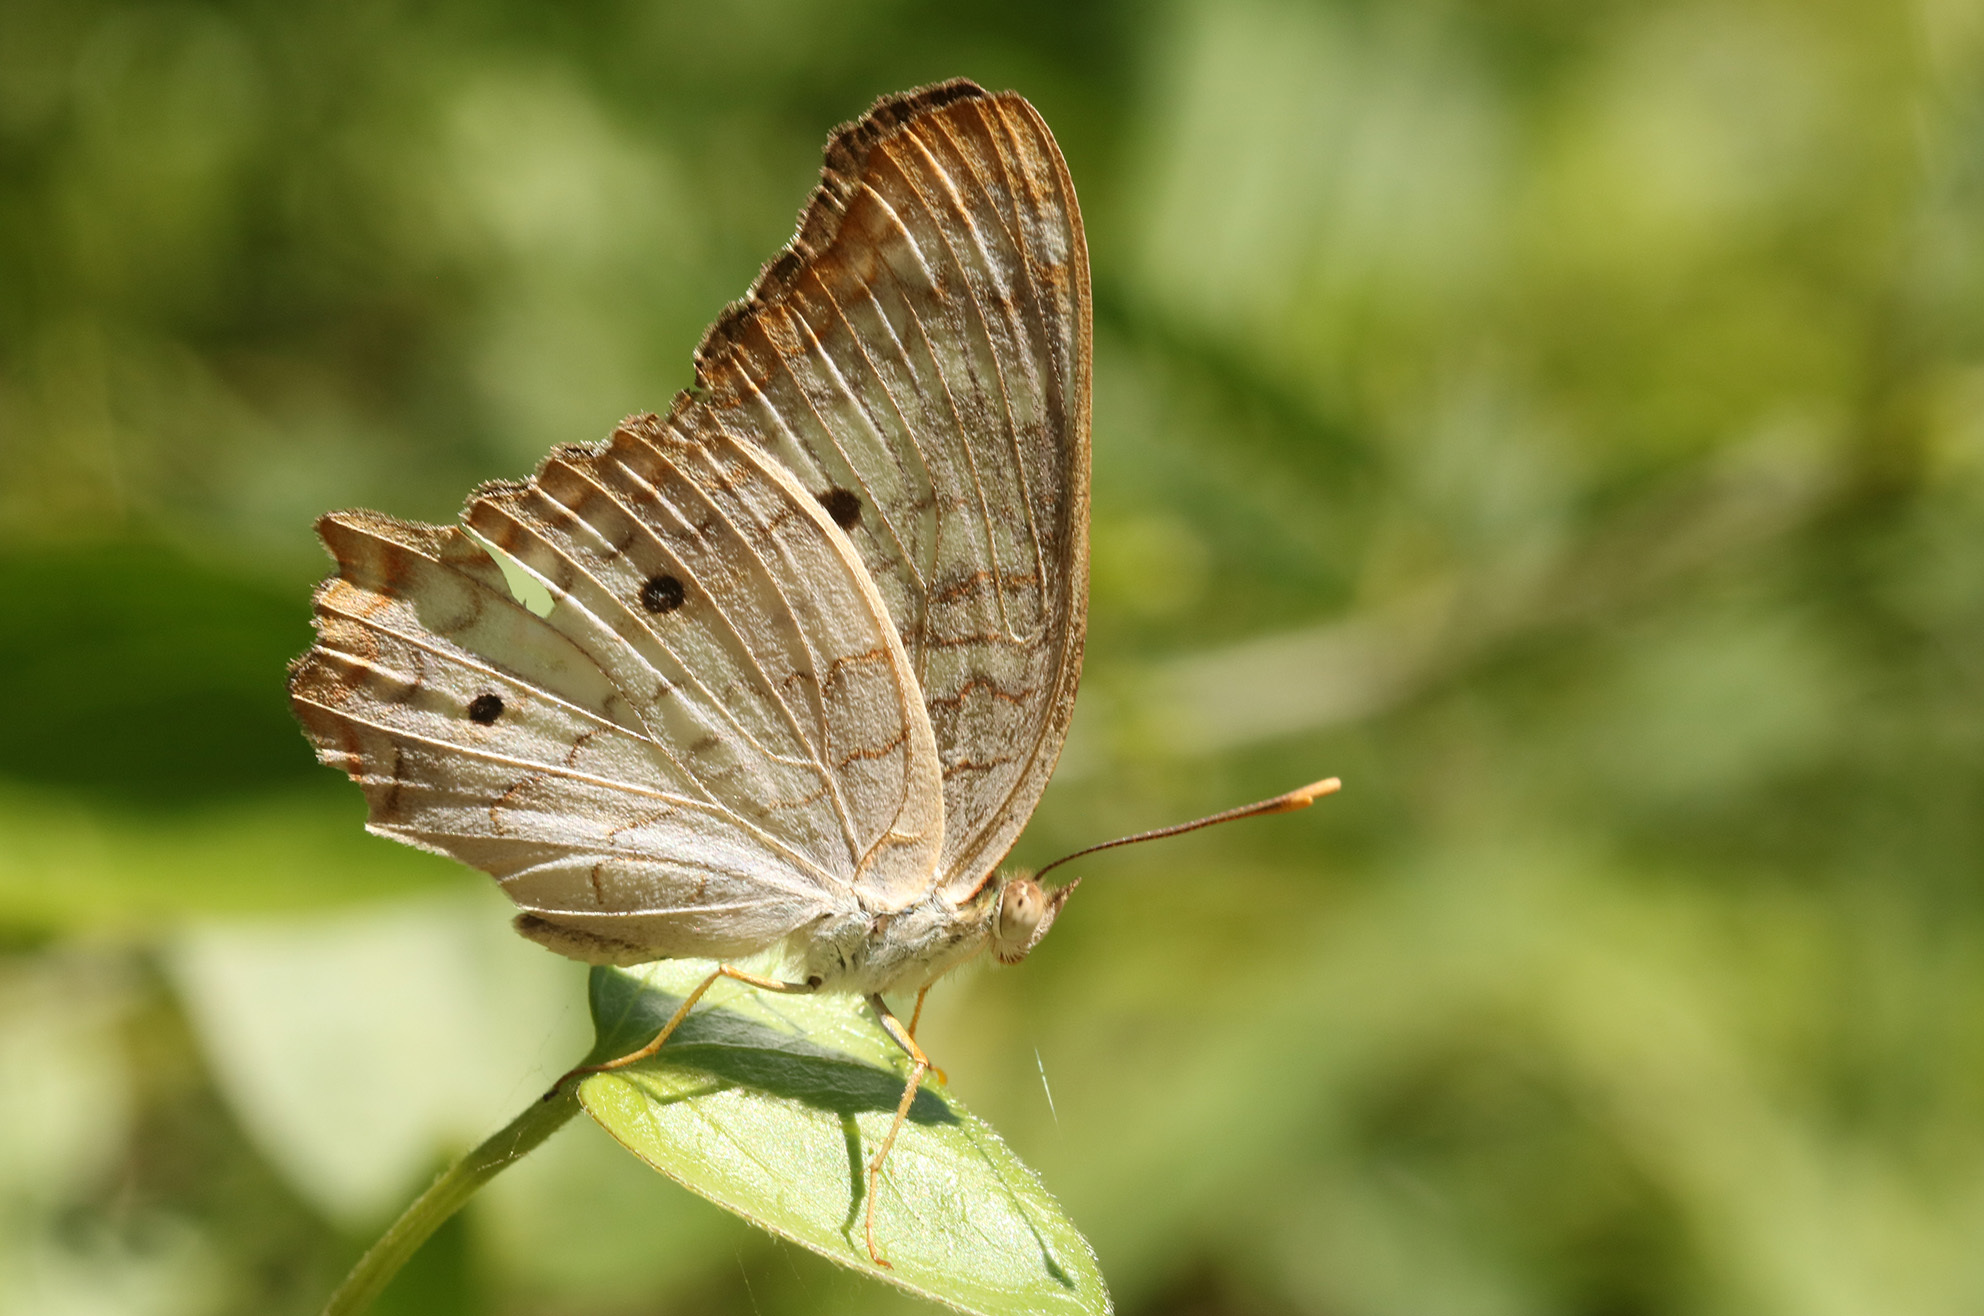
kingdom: Animalia
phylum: Arthropoda
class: Insecta
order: Lepidoptera
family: Nymphalidae
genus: Anartia
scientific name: Anartia jatrophae
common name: White peacock
